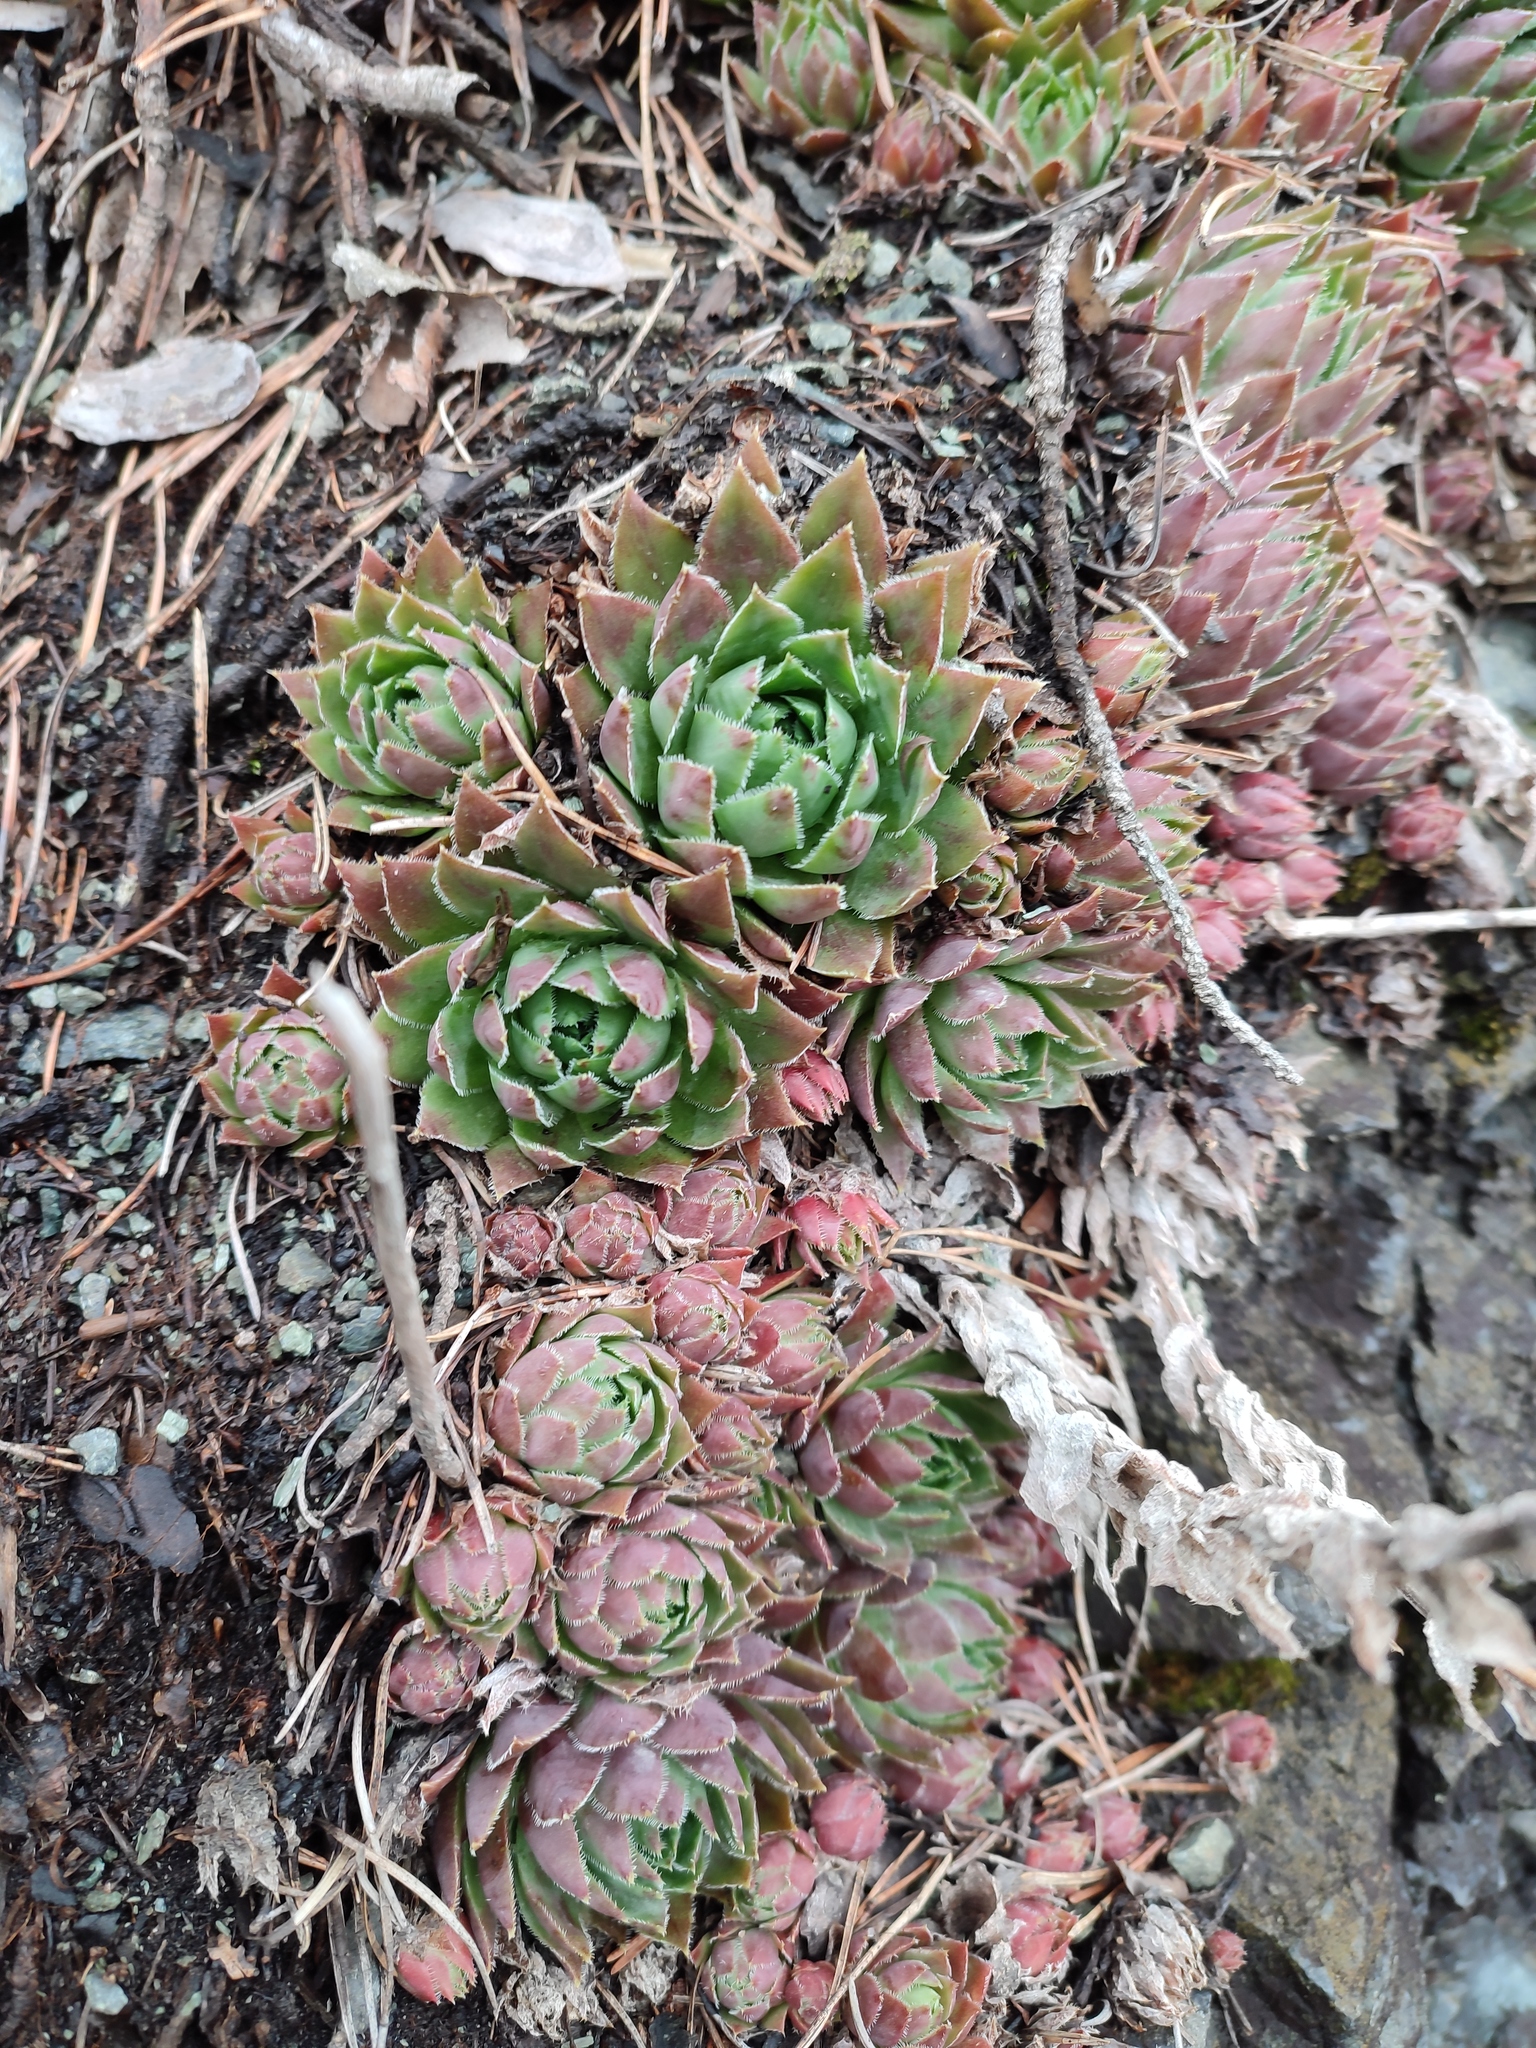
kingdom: Plantae
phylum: Tracheophyta
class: Magnoliopsida
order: Saxifragales
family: Crassulaceae
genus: Sempervivum
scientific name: Sempervivum globiferum
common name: Rolling hen-and-chicks
